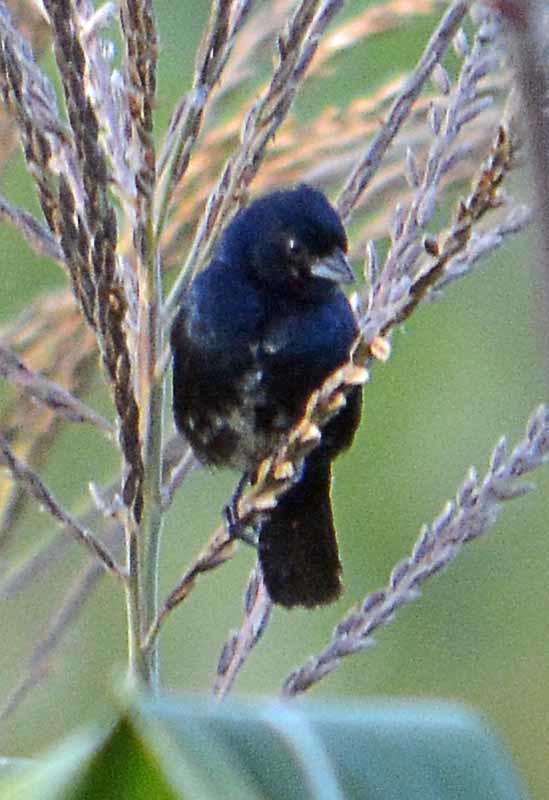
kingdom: Animalia
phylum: Chordata
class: Aves
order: Passeriformes
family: Thraupidae
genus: Volatinia
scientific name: Volatinia jacarina
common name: Blue-black grassquit
